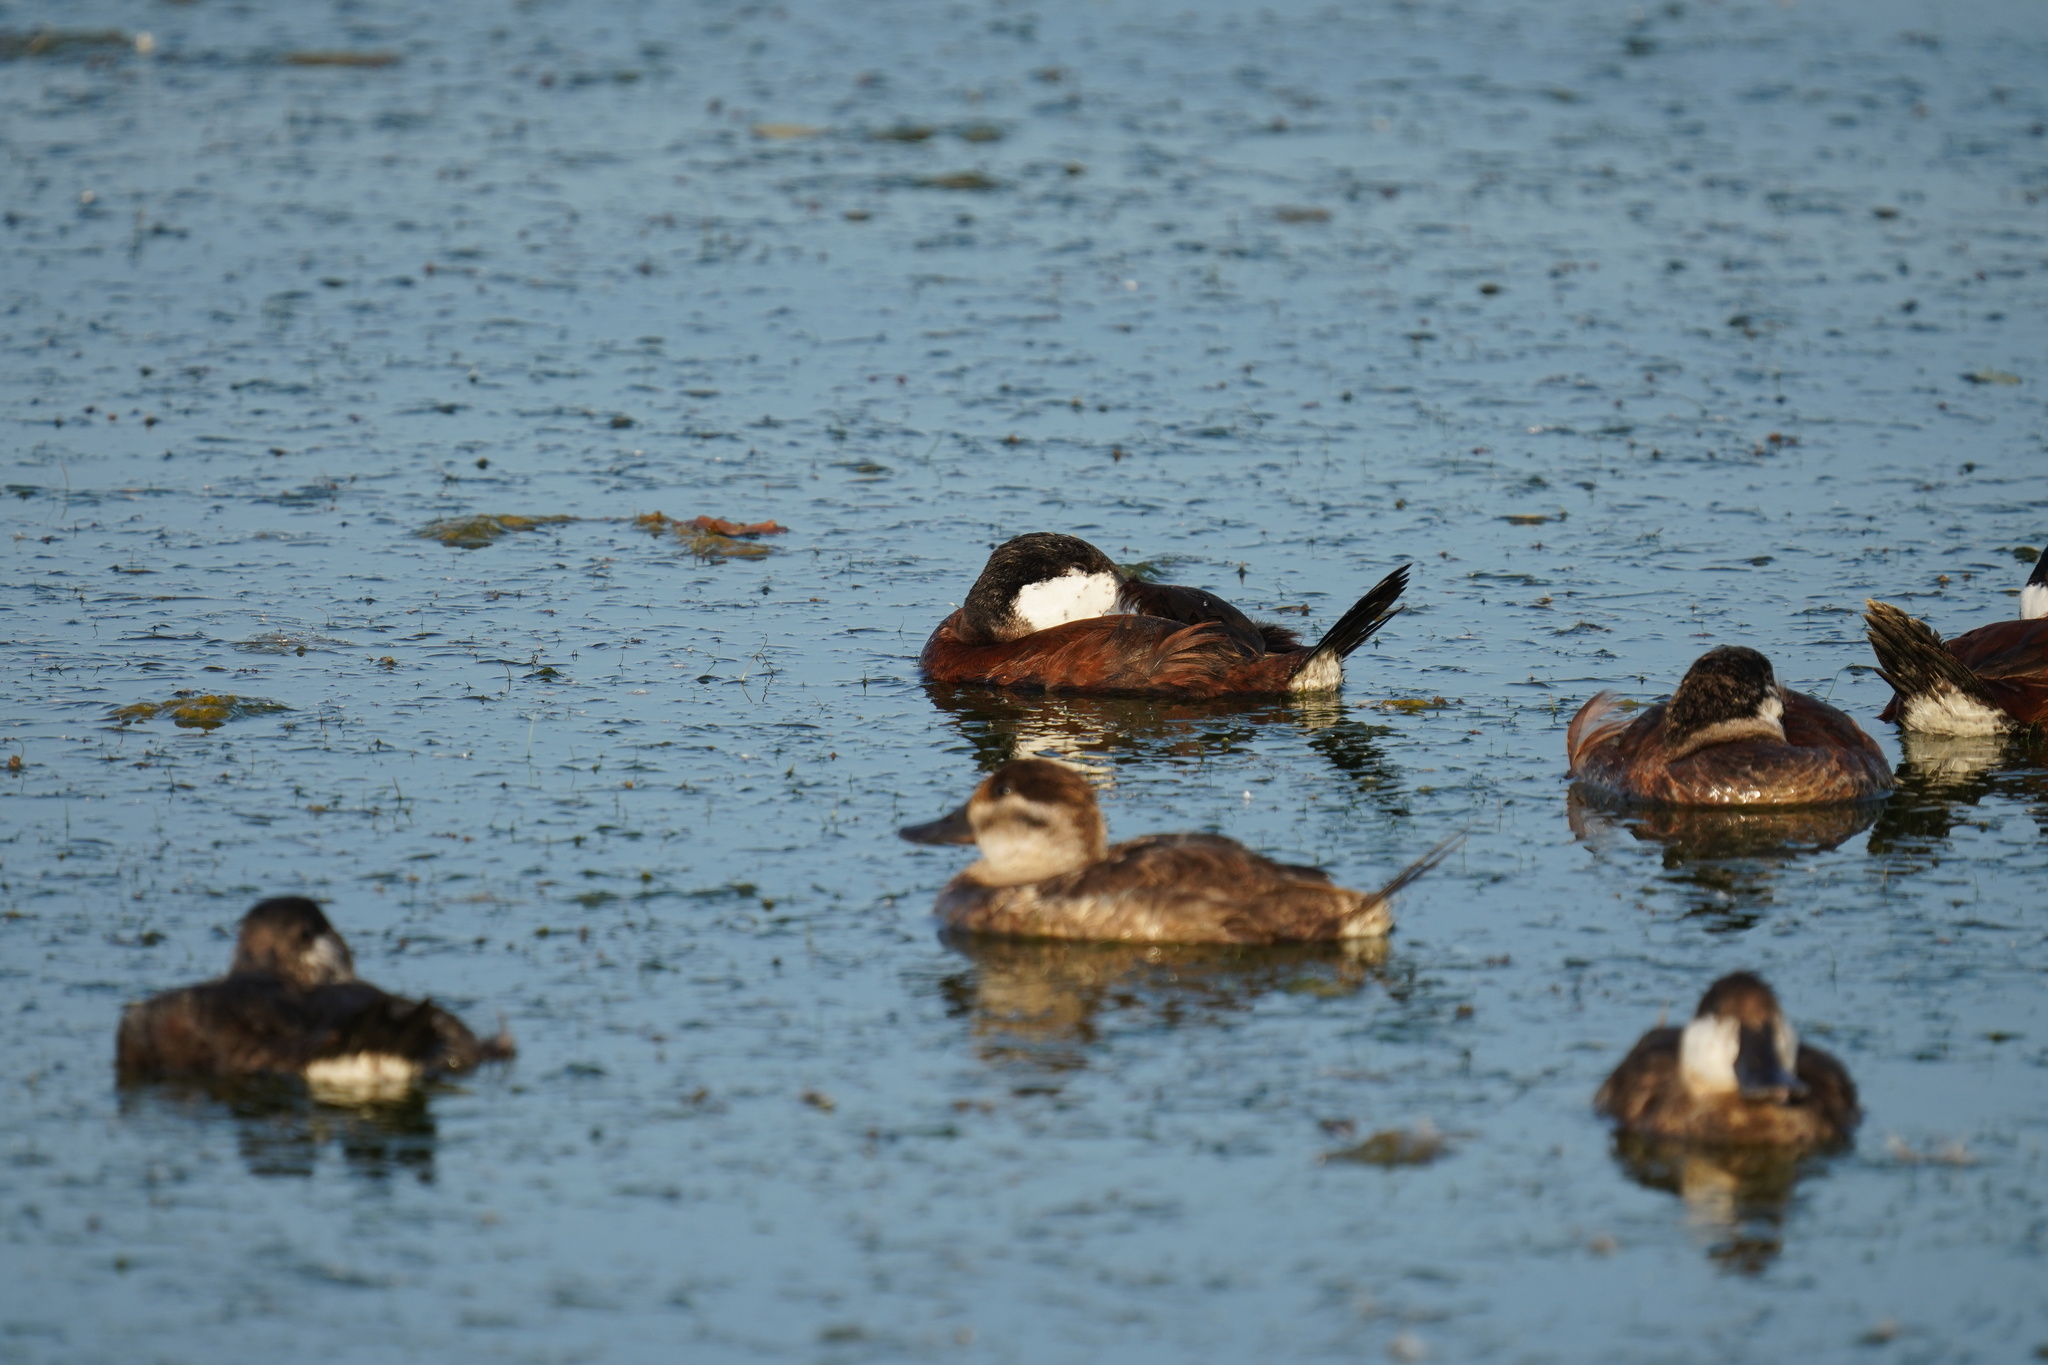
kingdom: Animalia
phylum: Chordata
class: Aves
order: Anseriformes
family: Anatidae
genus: Oxyura
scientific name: Oxyura jamaicensis
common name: Ruddy duck
